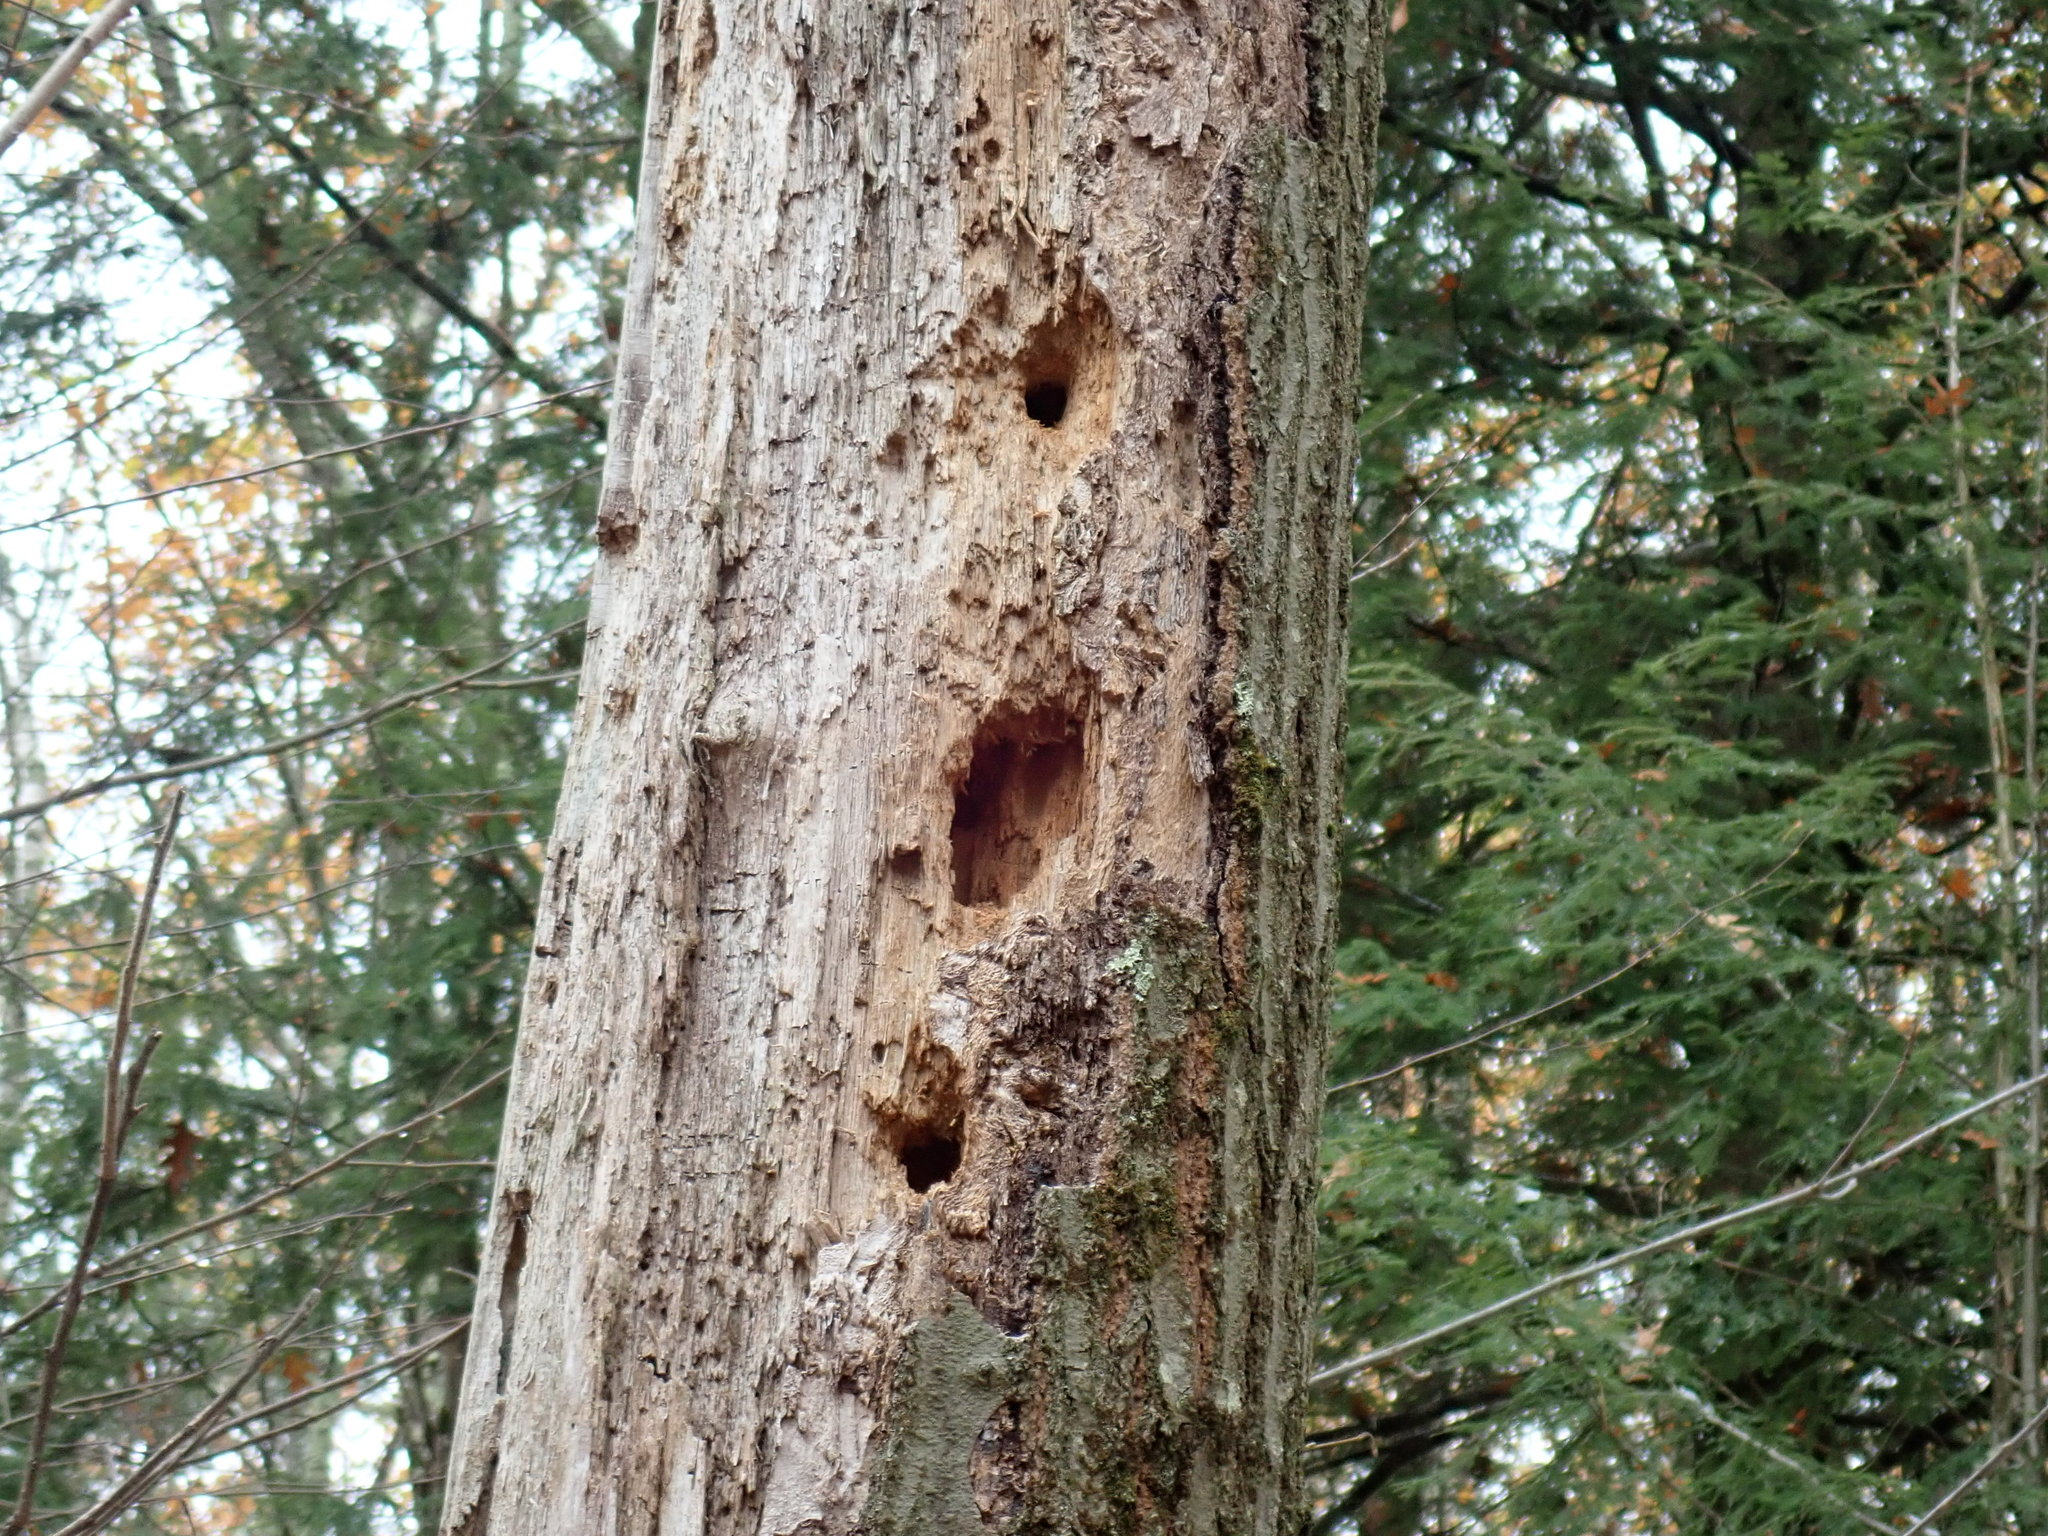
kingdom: Animalia
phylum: Chordata
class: Aves
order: Piciformes
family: Picidae
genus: Dryocopus
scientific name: Dryocopus pileatus
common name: Pileated woodpecker
